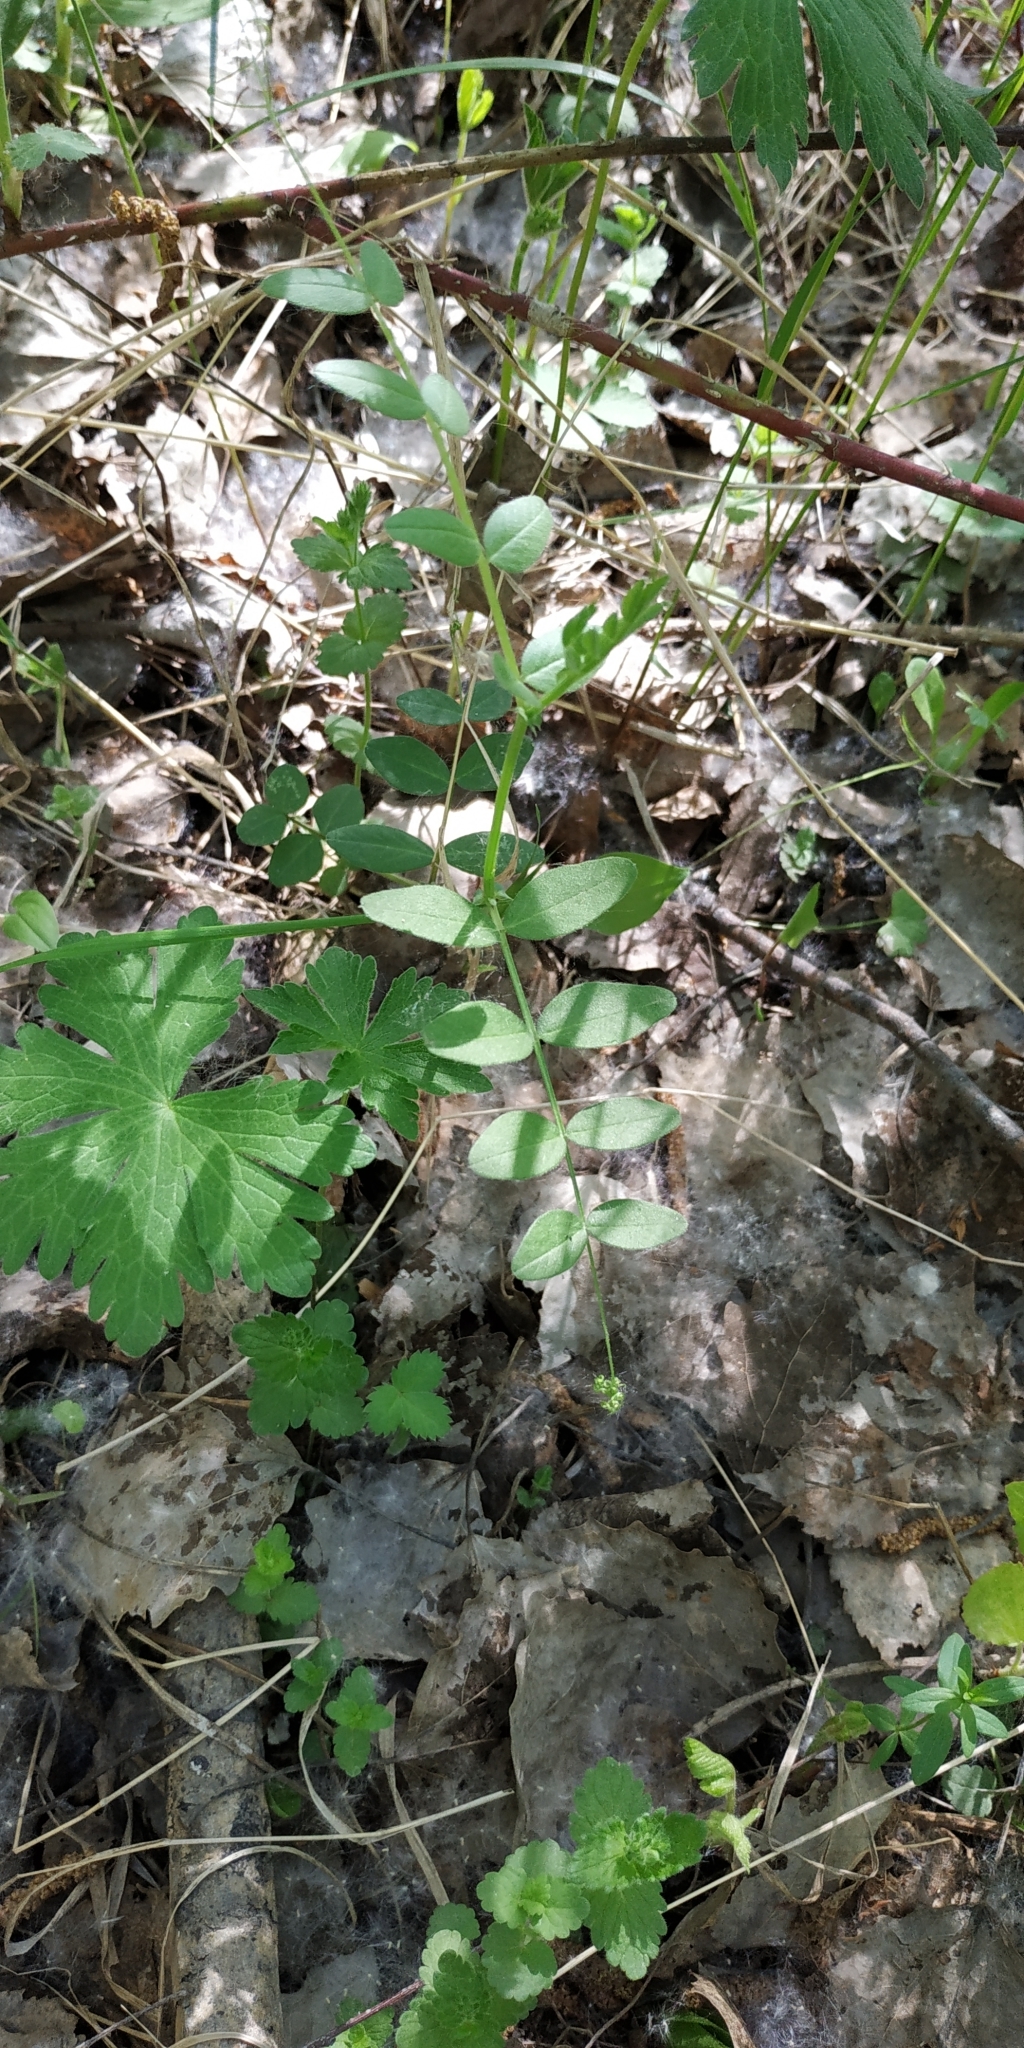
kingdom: Plantae
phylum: Tracheophyta
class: Magnoliopsida
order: Fabales
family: Fabaceae
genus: Vicia
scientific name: Vicia sepium
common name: Bush vetch
